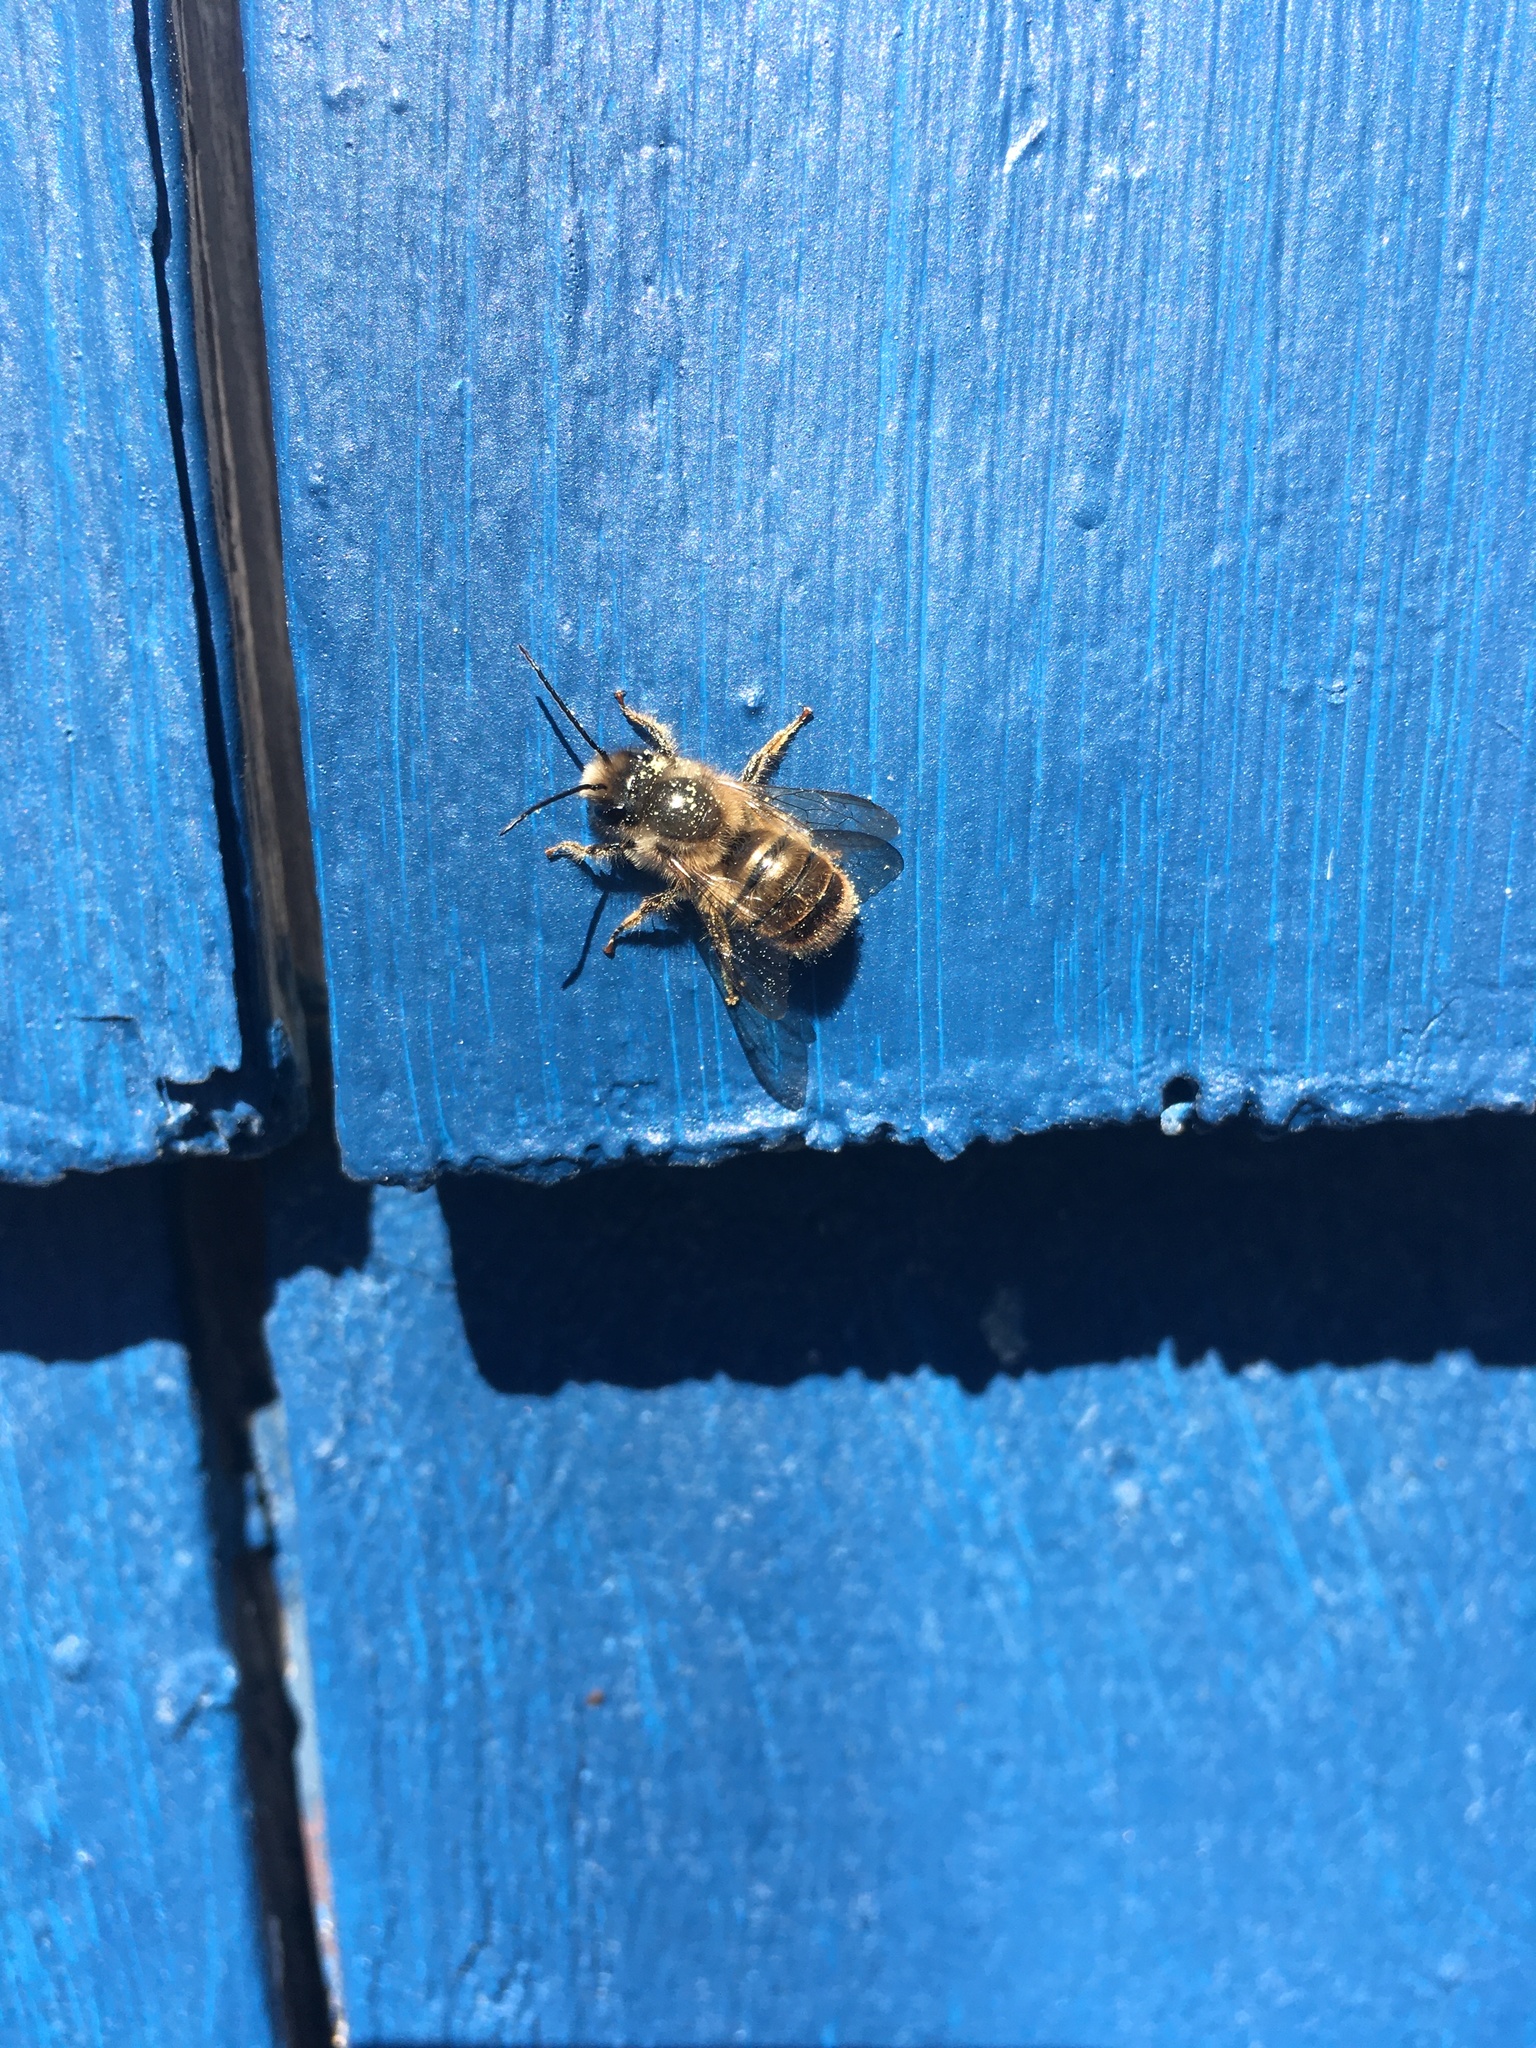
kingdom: Animalia
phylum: Arthropoda
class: Insecta
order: Hymenoptera
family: Megachilidae
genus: Osmia
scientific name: Osmia cornifrons
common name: Horn-faced bee
